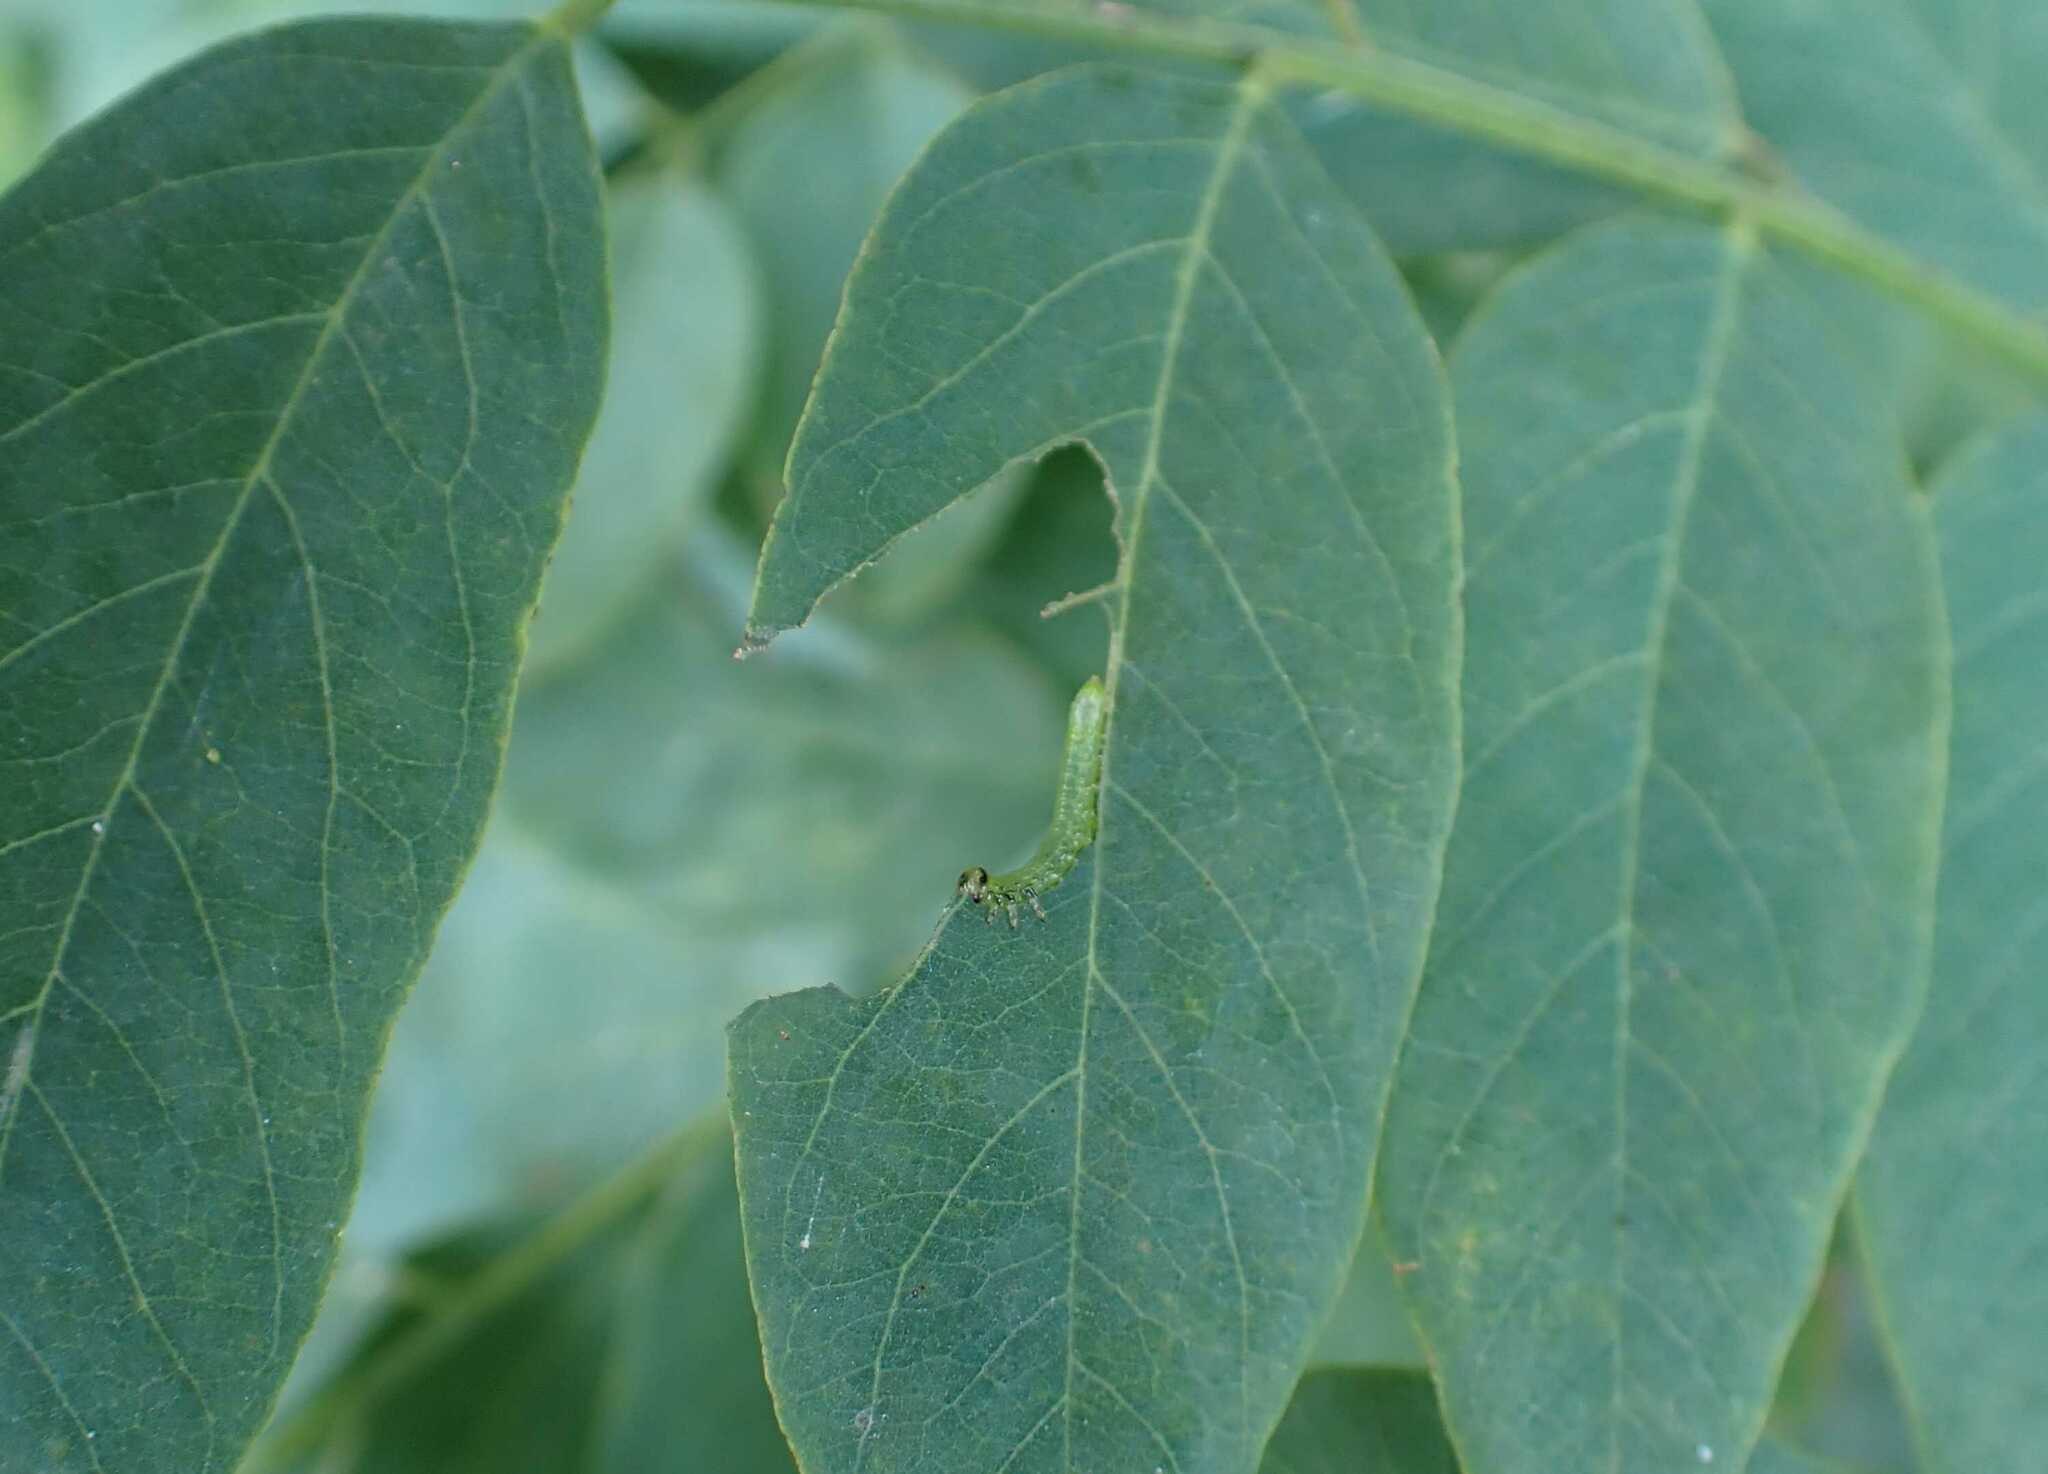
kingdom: Animalia
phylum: Arthropoda
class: Insecta
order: Hymenoptera
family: Tenthredinidae
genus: Euura
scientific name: Euura tibialis
